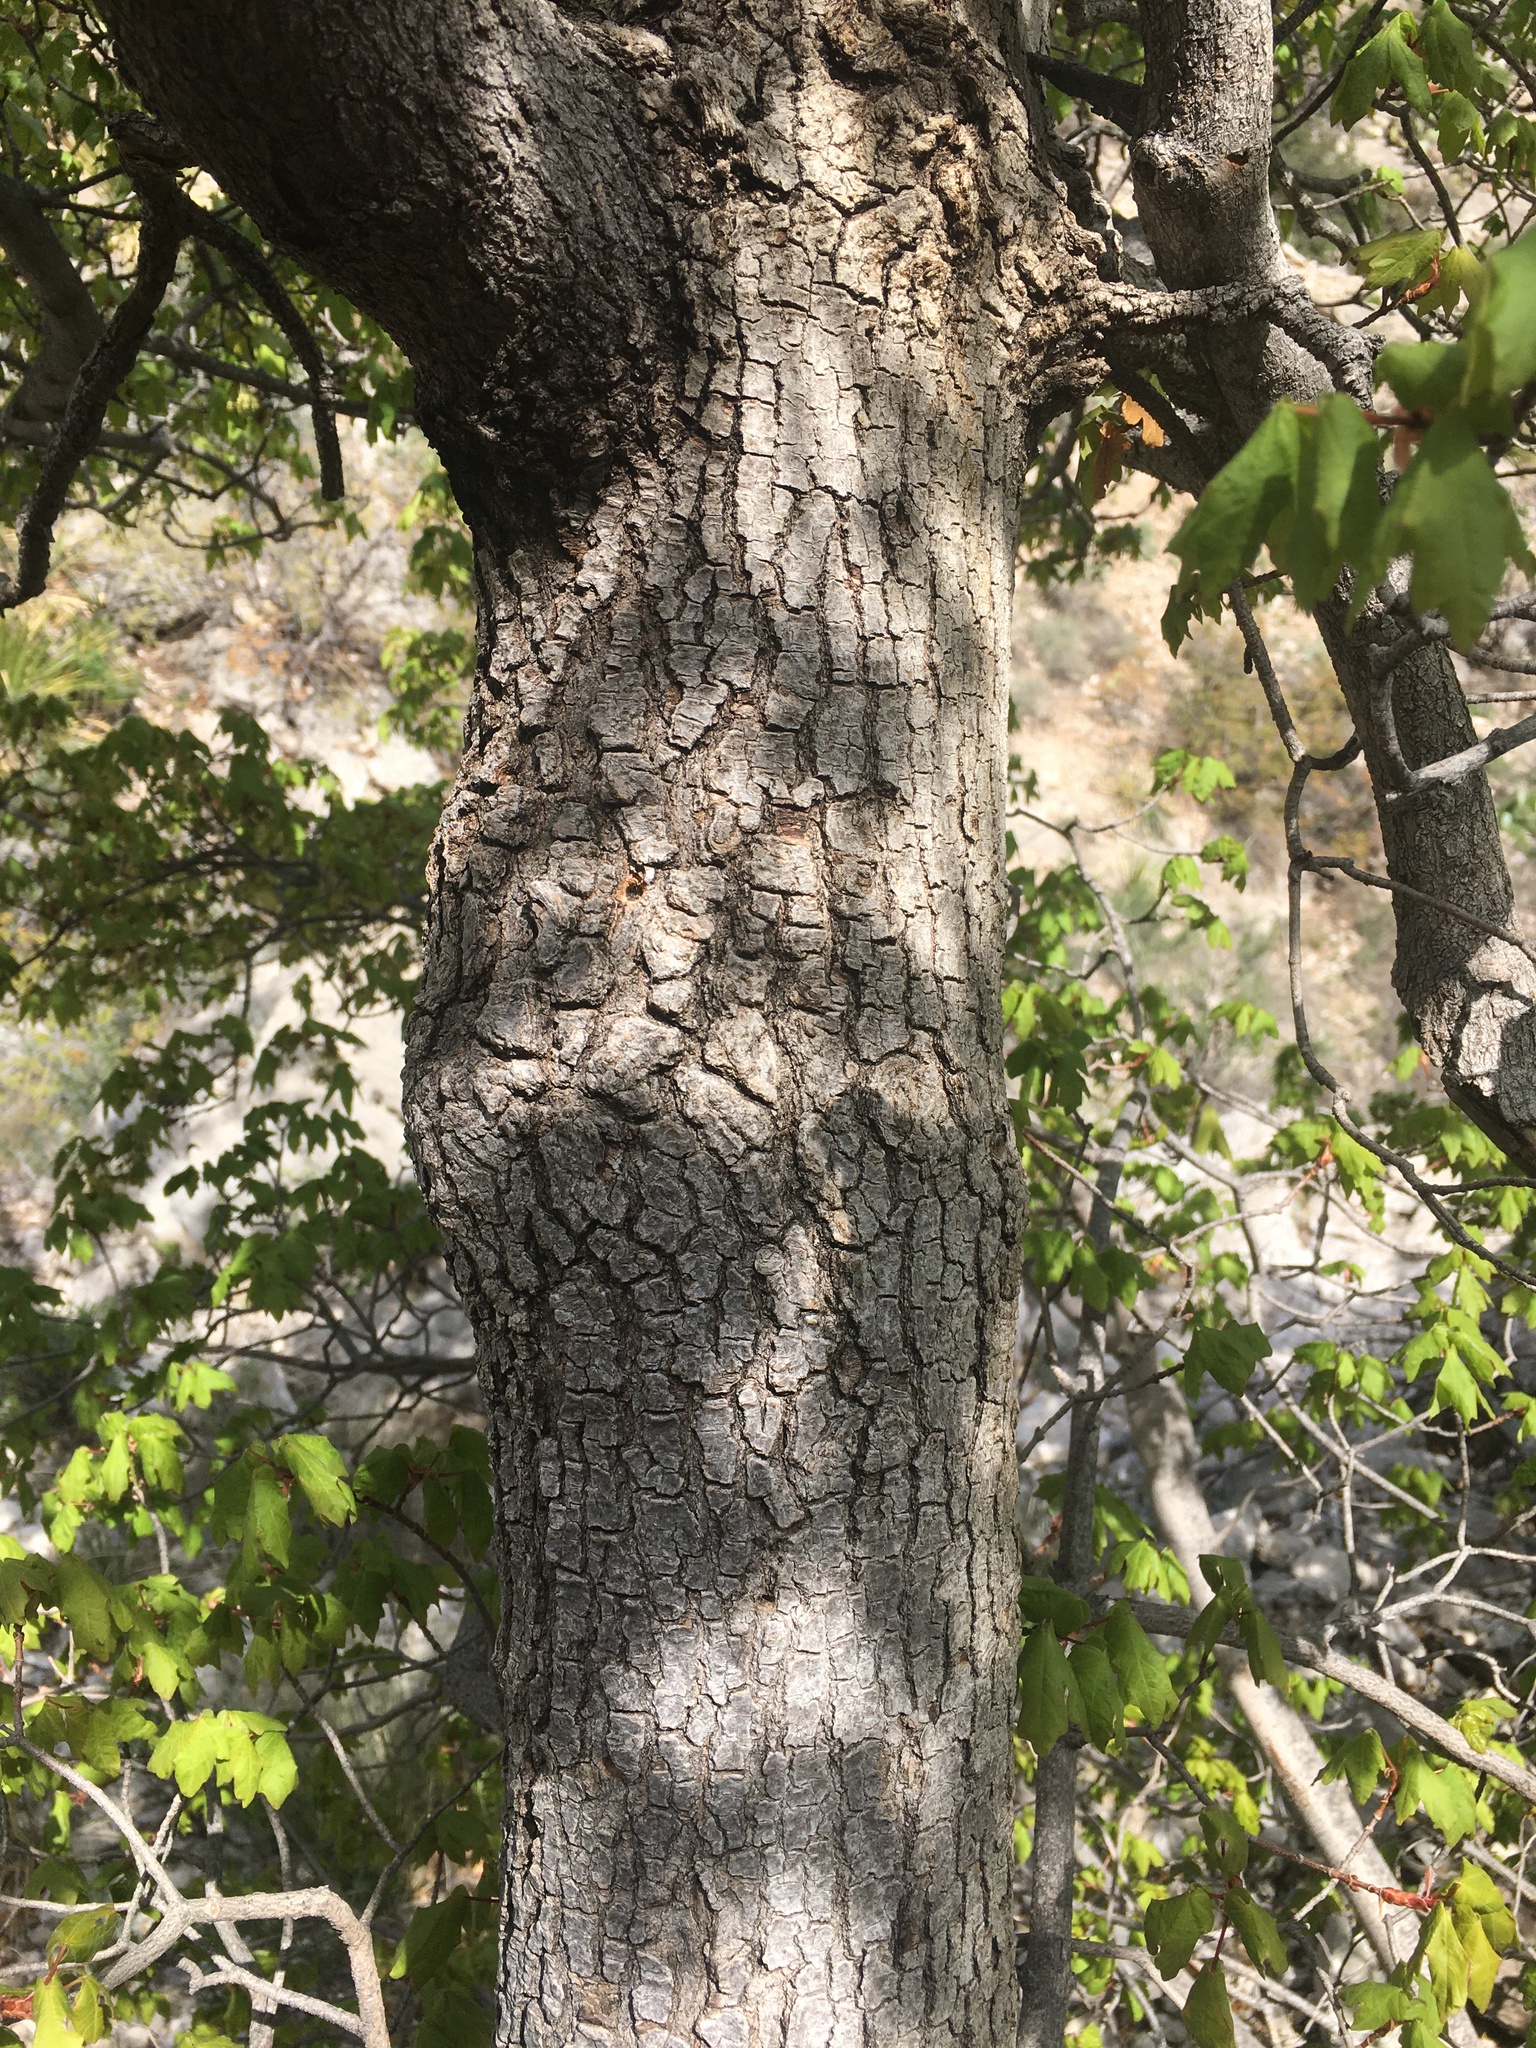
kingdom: Plantae
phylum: Tracheophyta
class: Magnoliopsida
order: Sapindales
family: Sapindaceae
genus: Acer
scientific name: Acer grandidentatum
